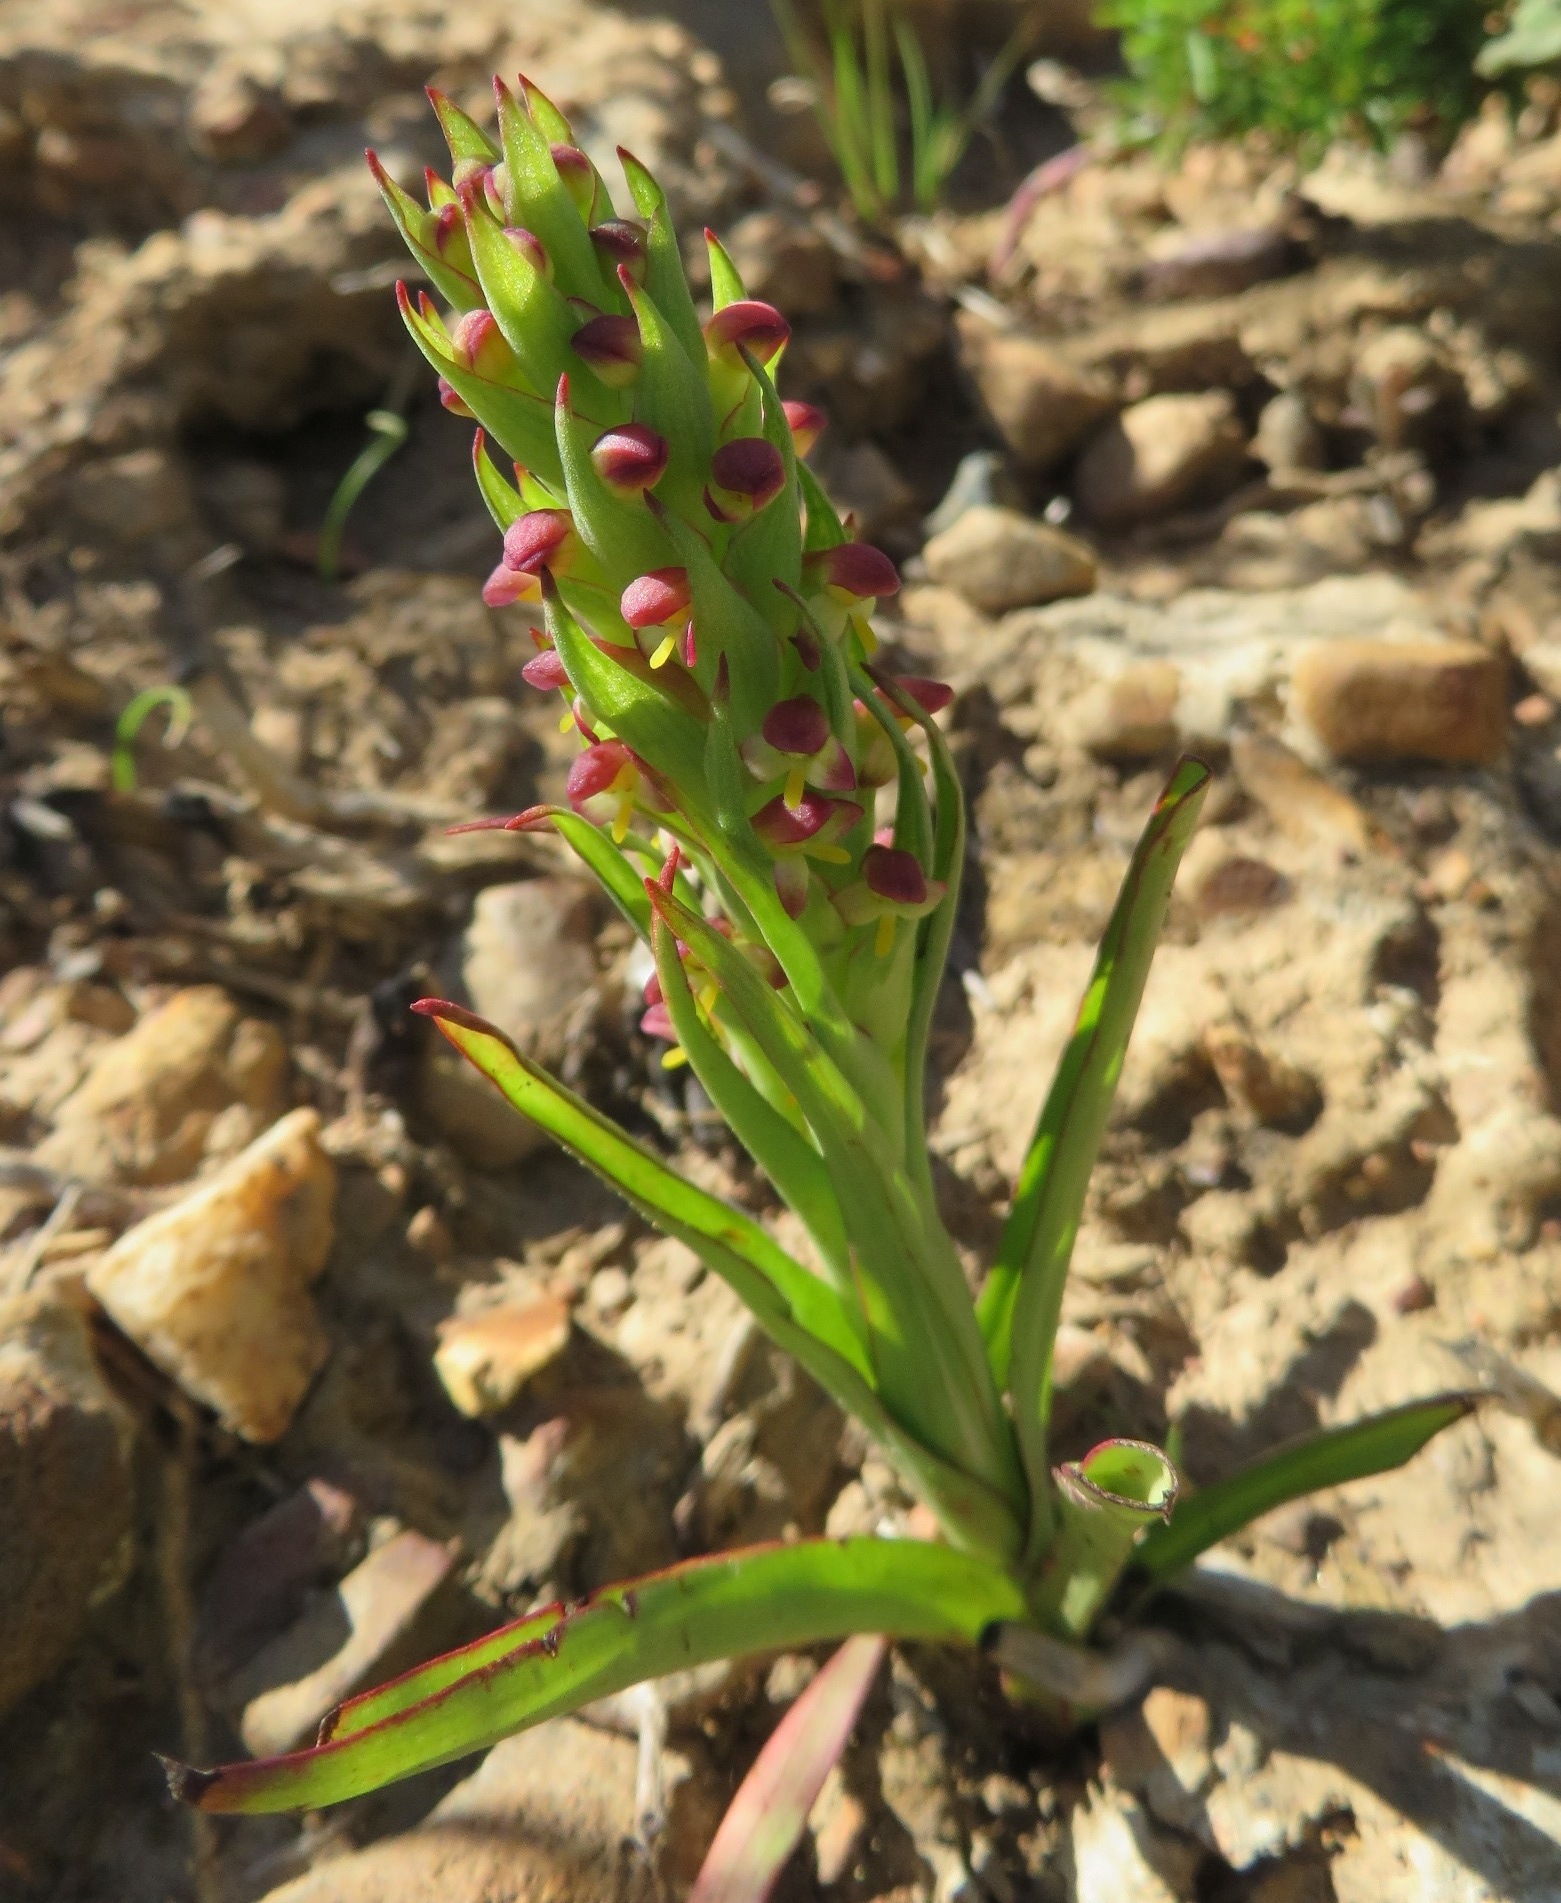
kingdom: Plantae
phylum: Tracheophyta
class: Liliopsida
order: Asparagales
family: Orchidaceae
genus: Disa
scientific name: Disa bracteata
